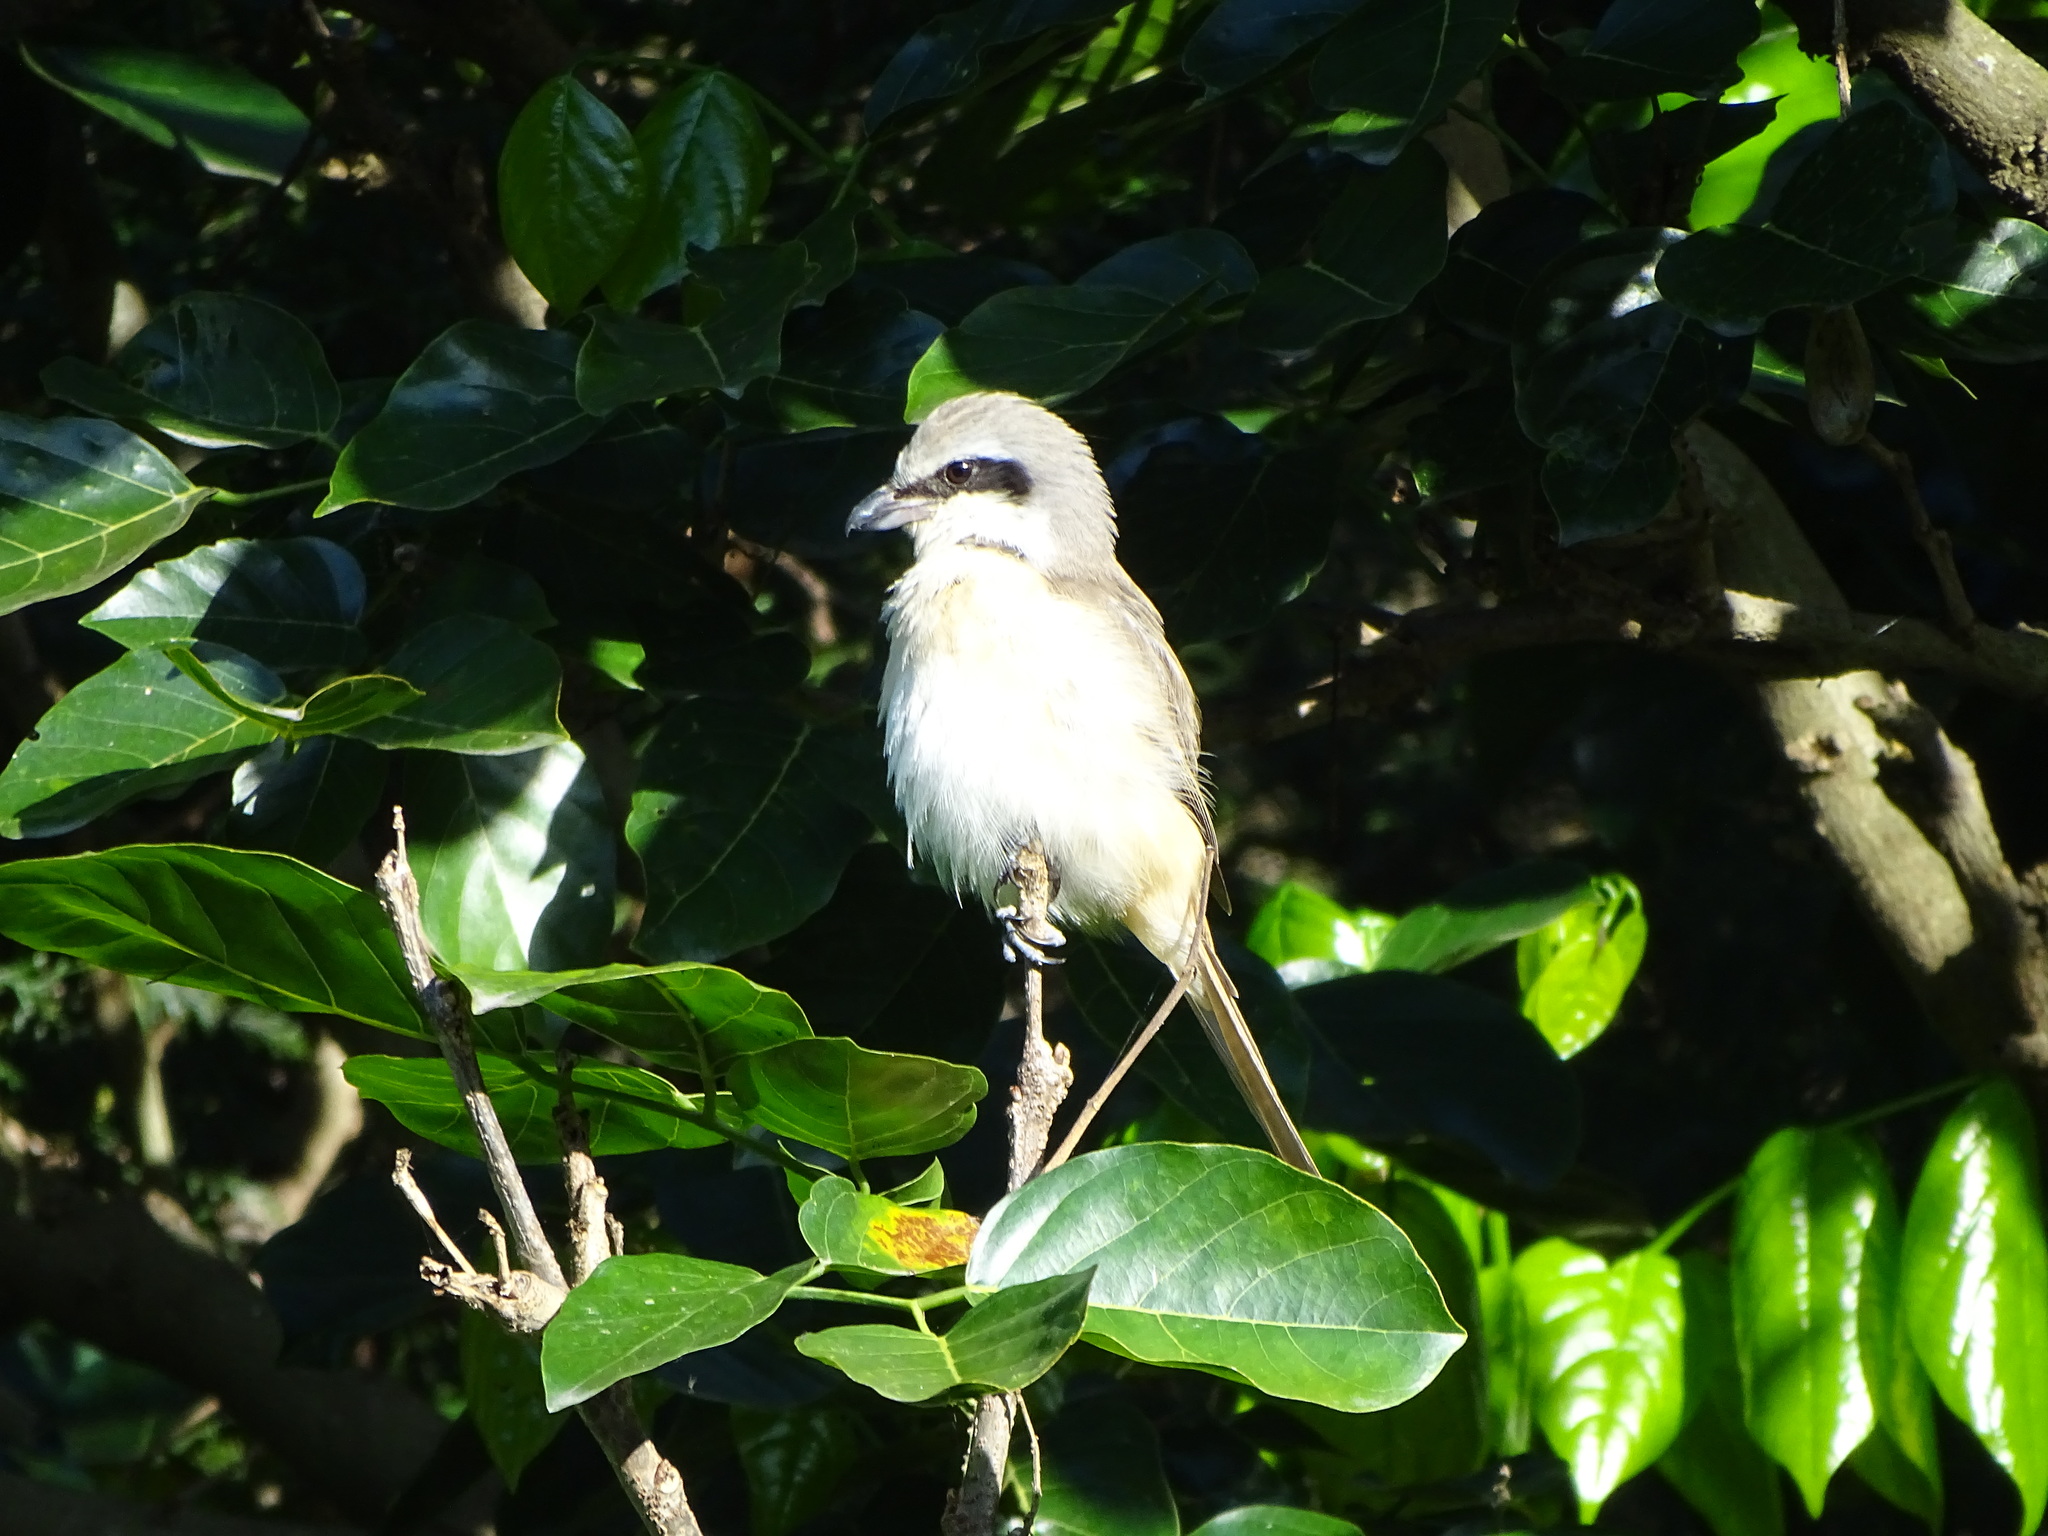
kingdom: Animalia
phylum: Chordata
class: Aves
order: Passeriformes
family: Laniidae
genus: Lanius
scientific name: Lanius cristatus
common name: Brown shrike
